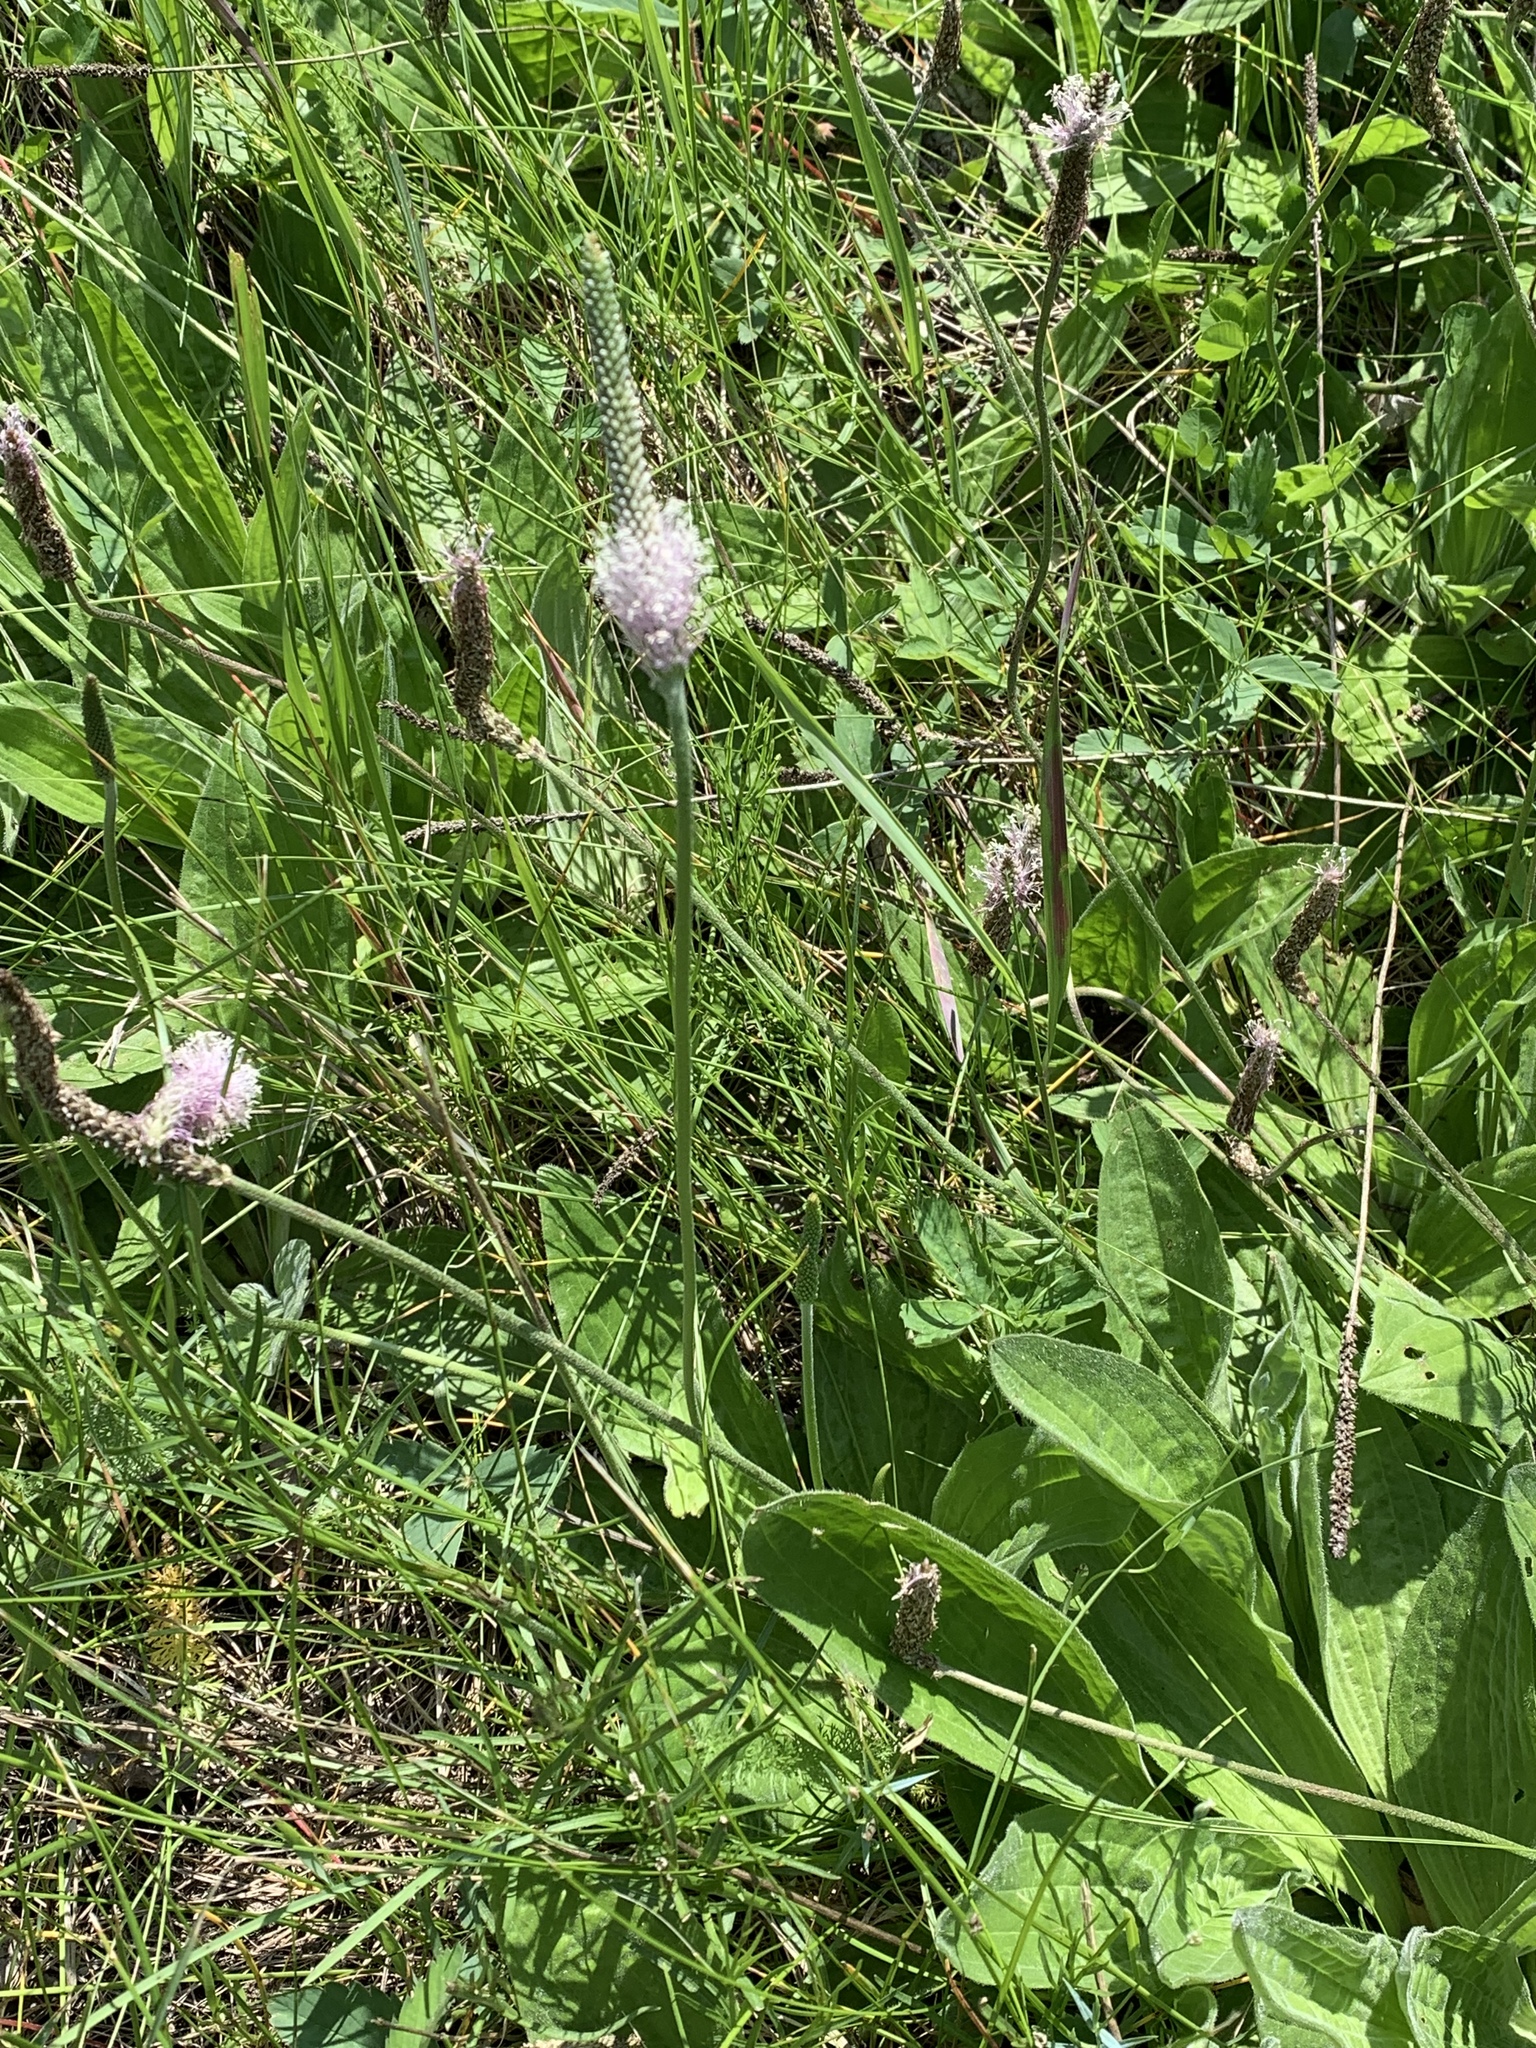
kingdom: Plantae
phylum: Tracheophyta
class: Magnoliopsida
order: Lamiales
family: Plantaginaceae
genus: Plantago
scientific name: Plantago media
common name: Hoary plantain
